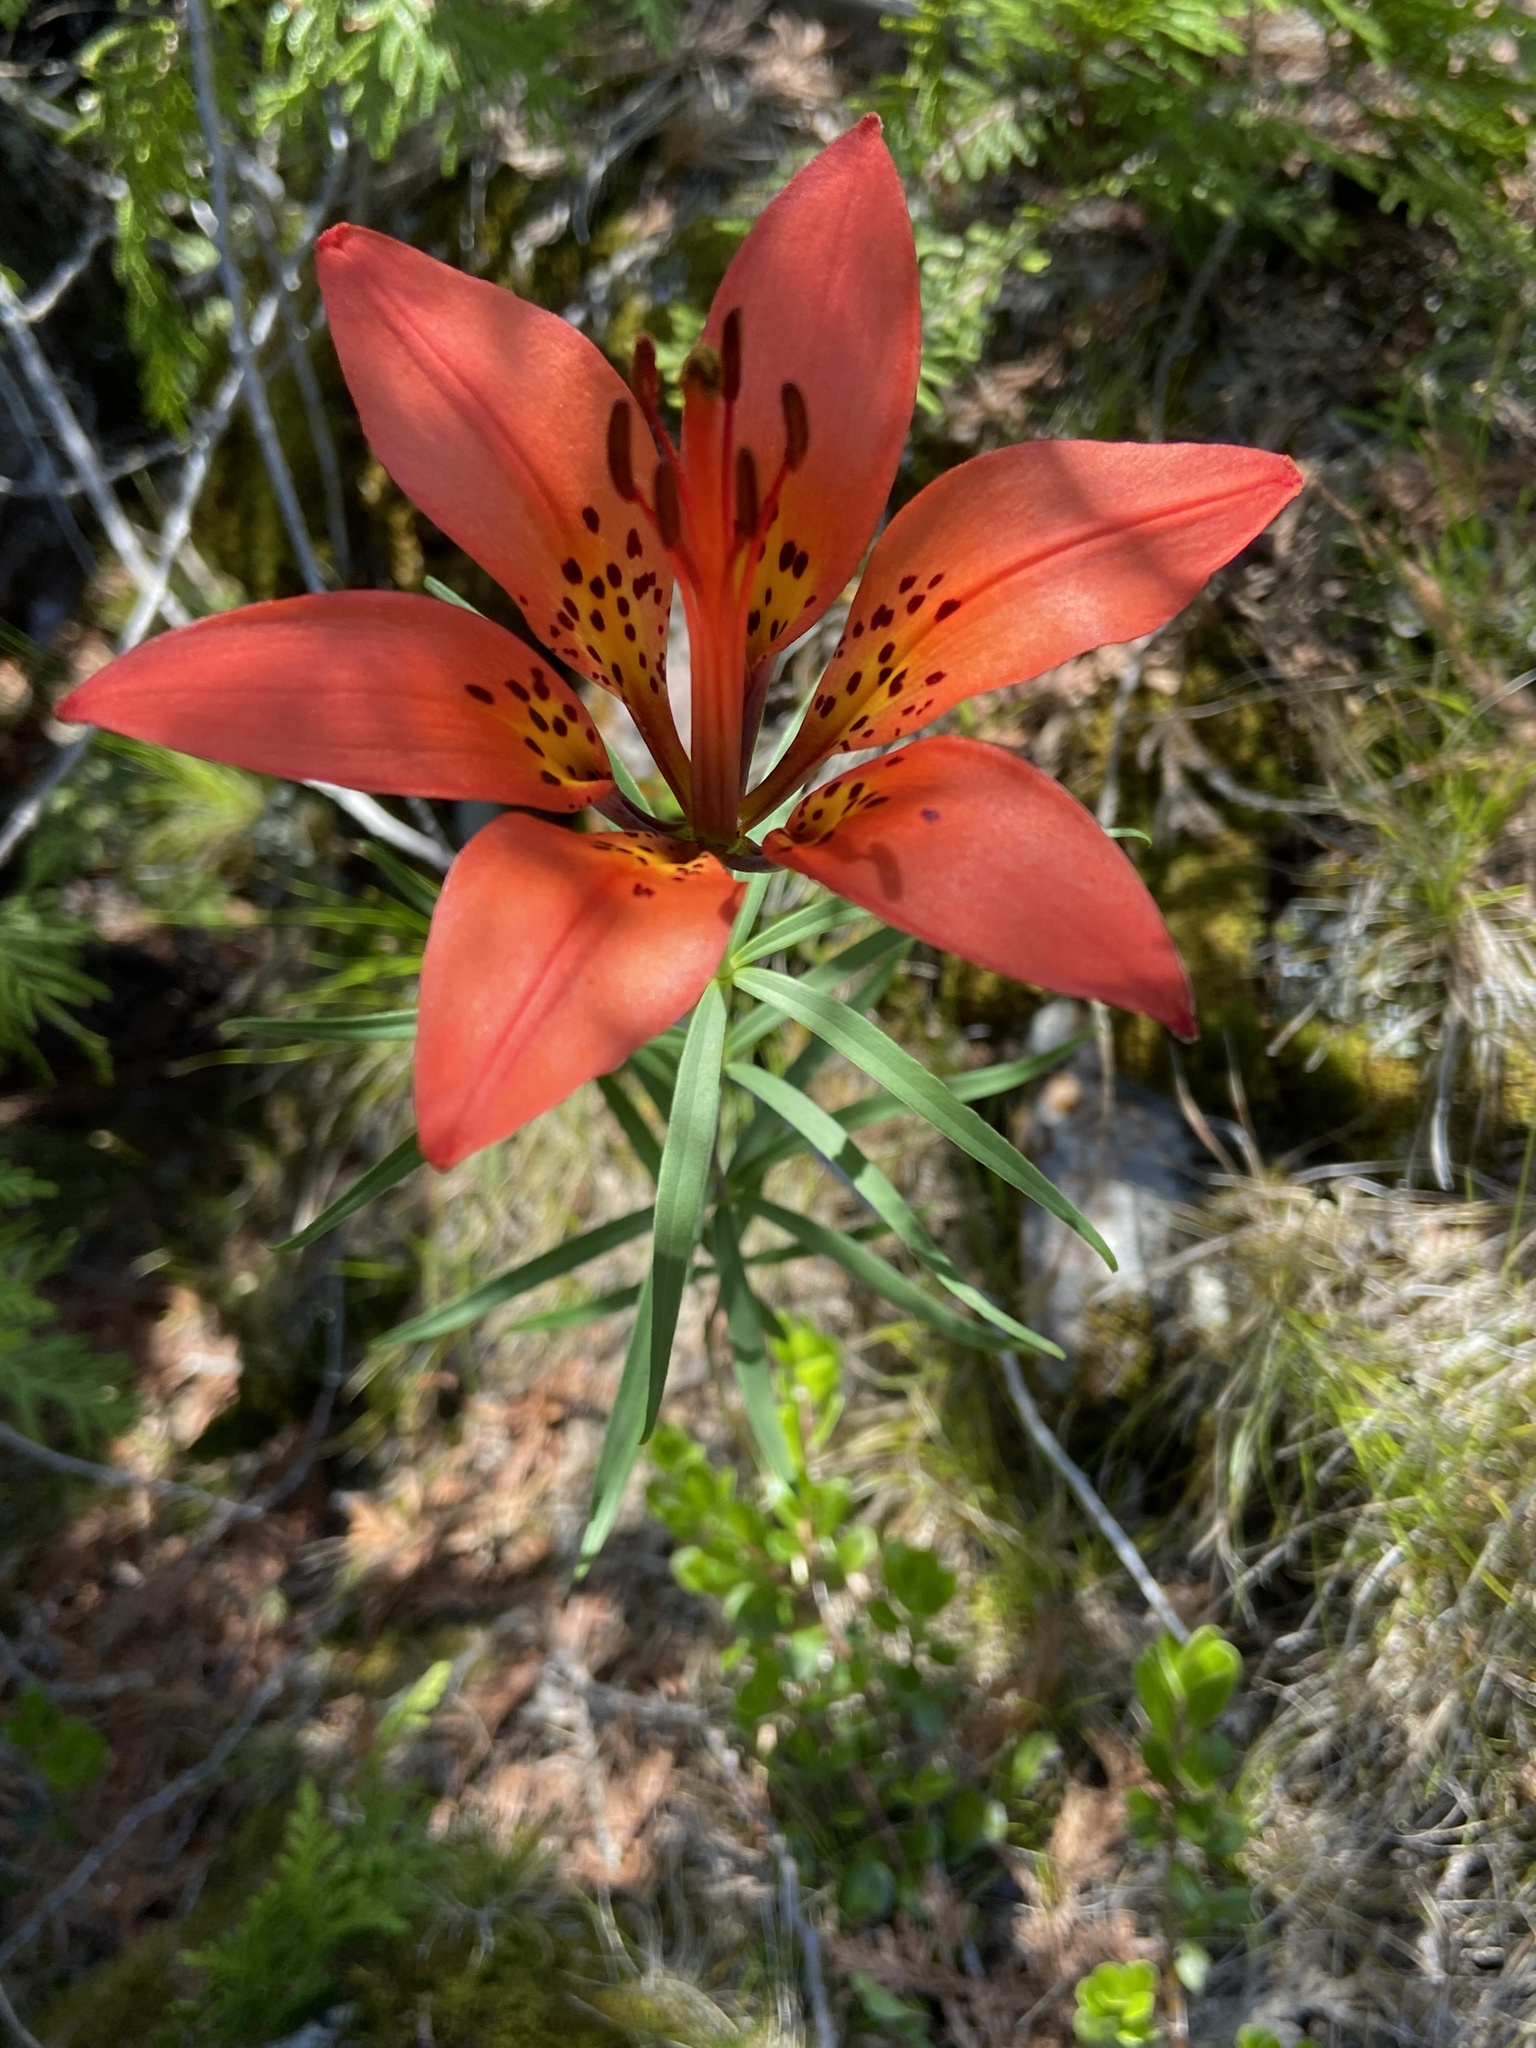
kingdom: Plantae
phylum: Tracheophyta
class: Liliopsida
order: Liliales
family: Liliaceae
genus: Lilium
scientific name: Lilium philadelphicum
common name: Red lily
